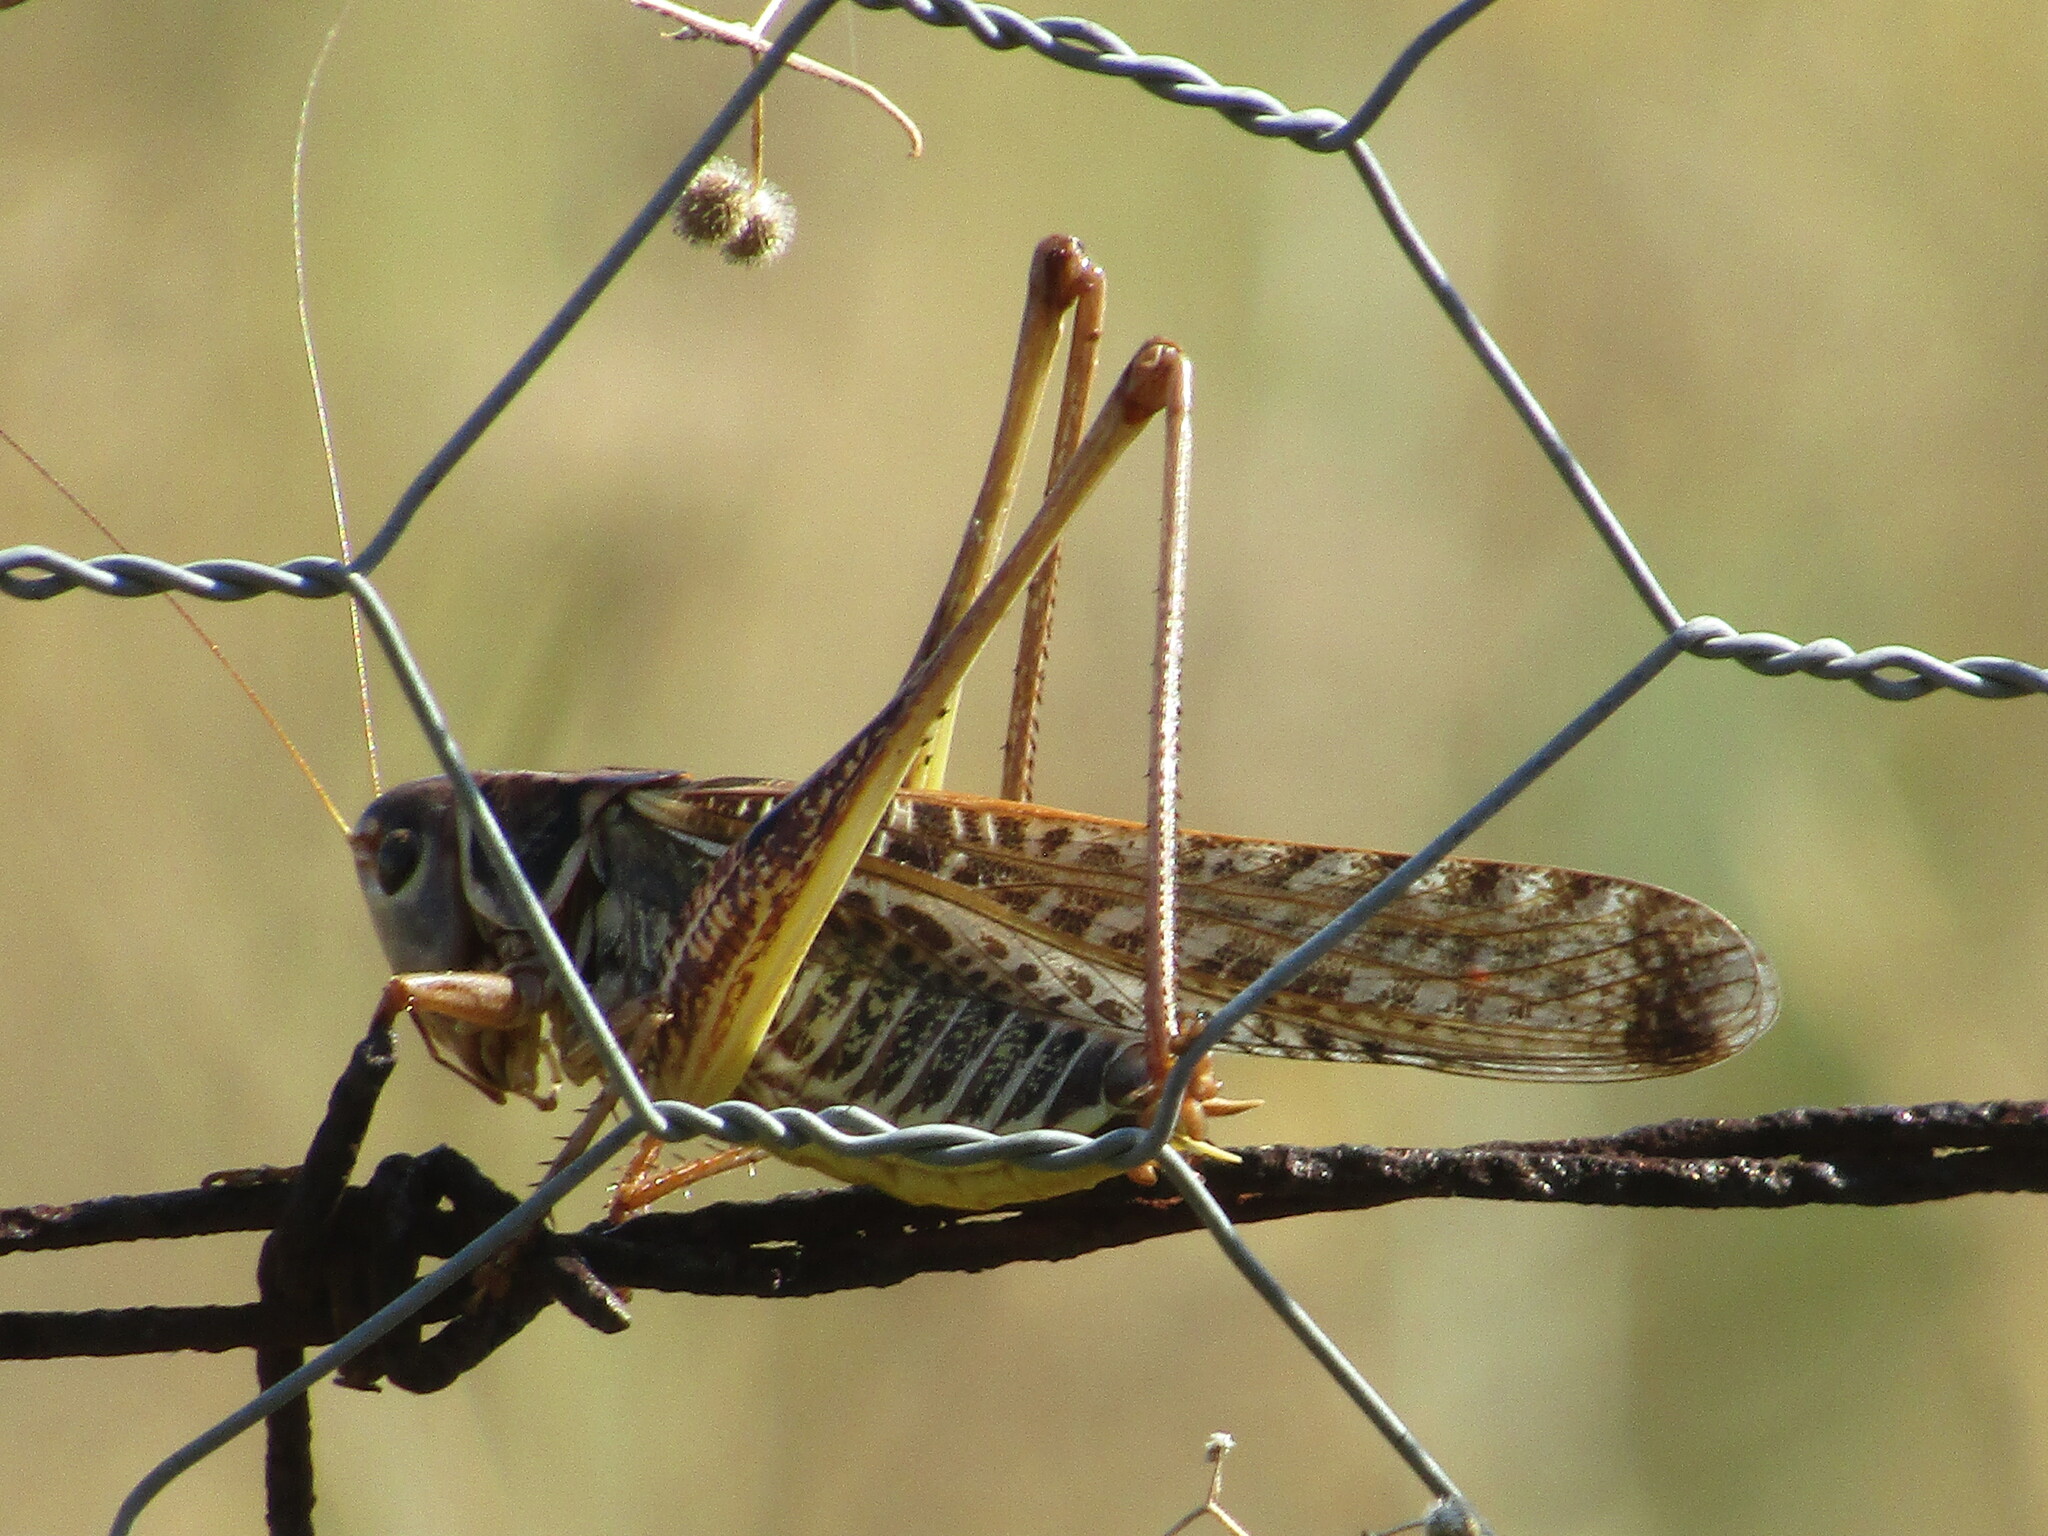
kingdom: Animalia
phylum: Arthropoda
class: Insecta
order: Orthoptera
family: Tettigoniidae
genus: Decticus
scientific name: Decticus albifrons
